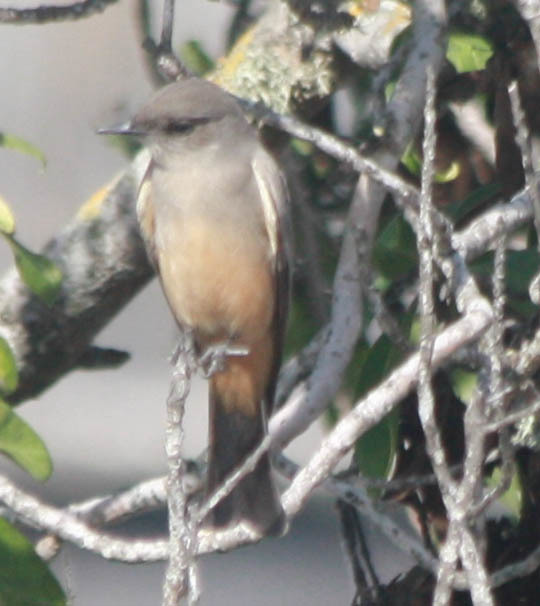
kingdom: Animalia
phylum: Chordata
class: Aves
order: Passeriformes
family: Tyrannidae
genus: Sayornis
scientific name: Sayornis saya
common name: Say's phoebe
